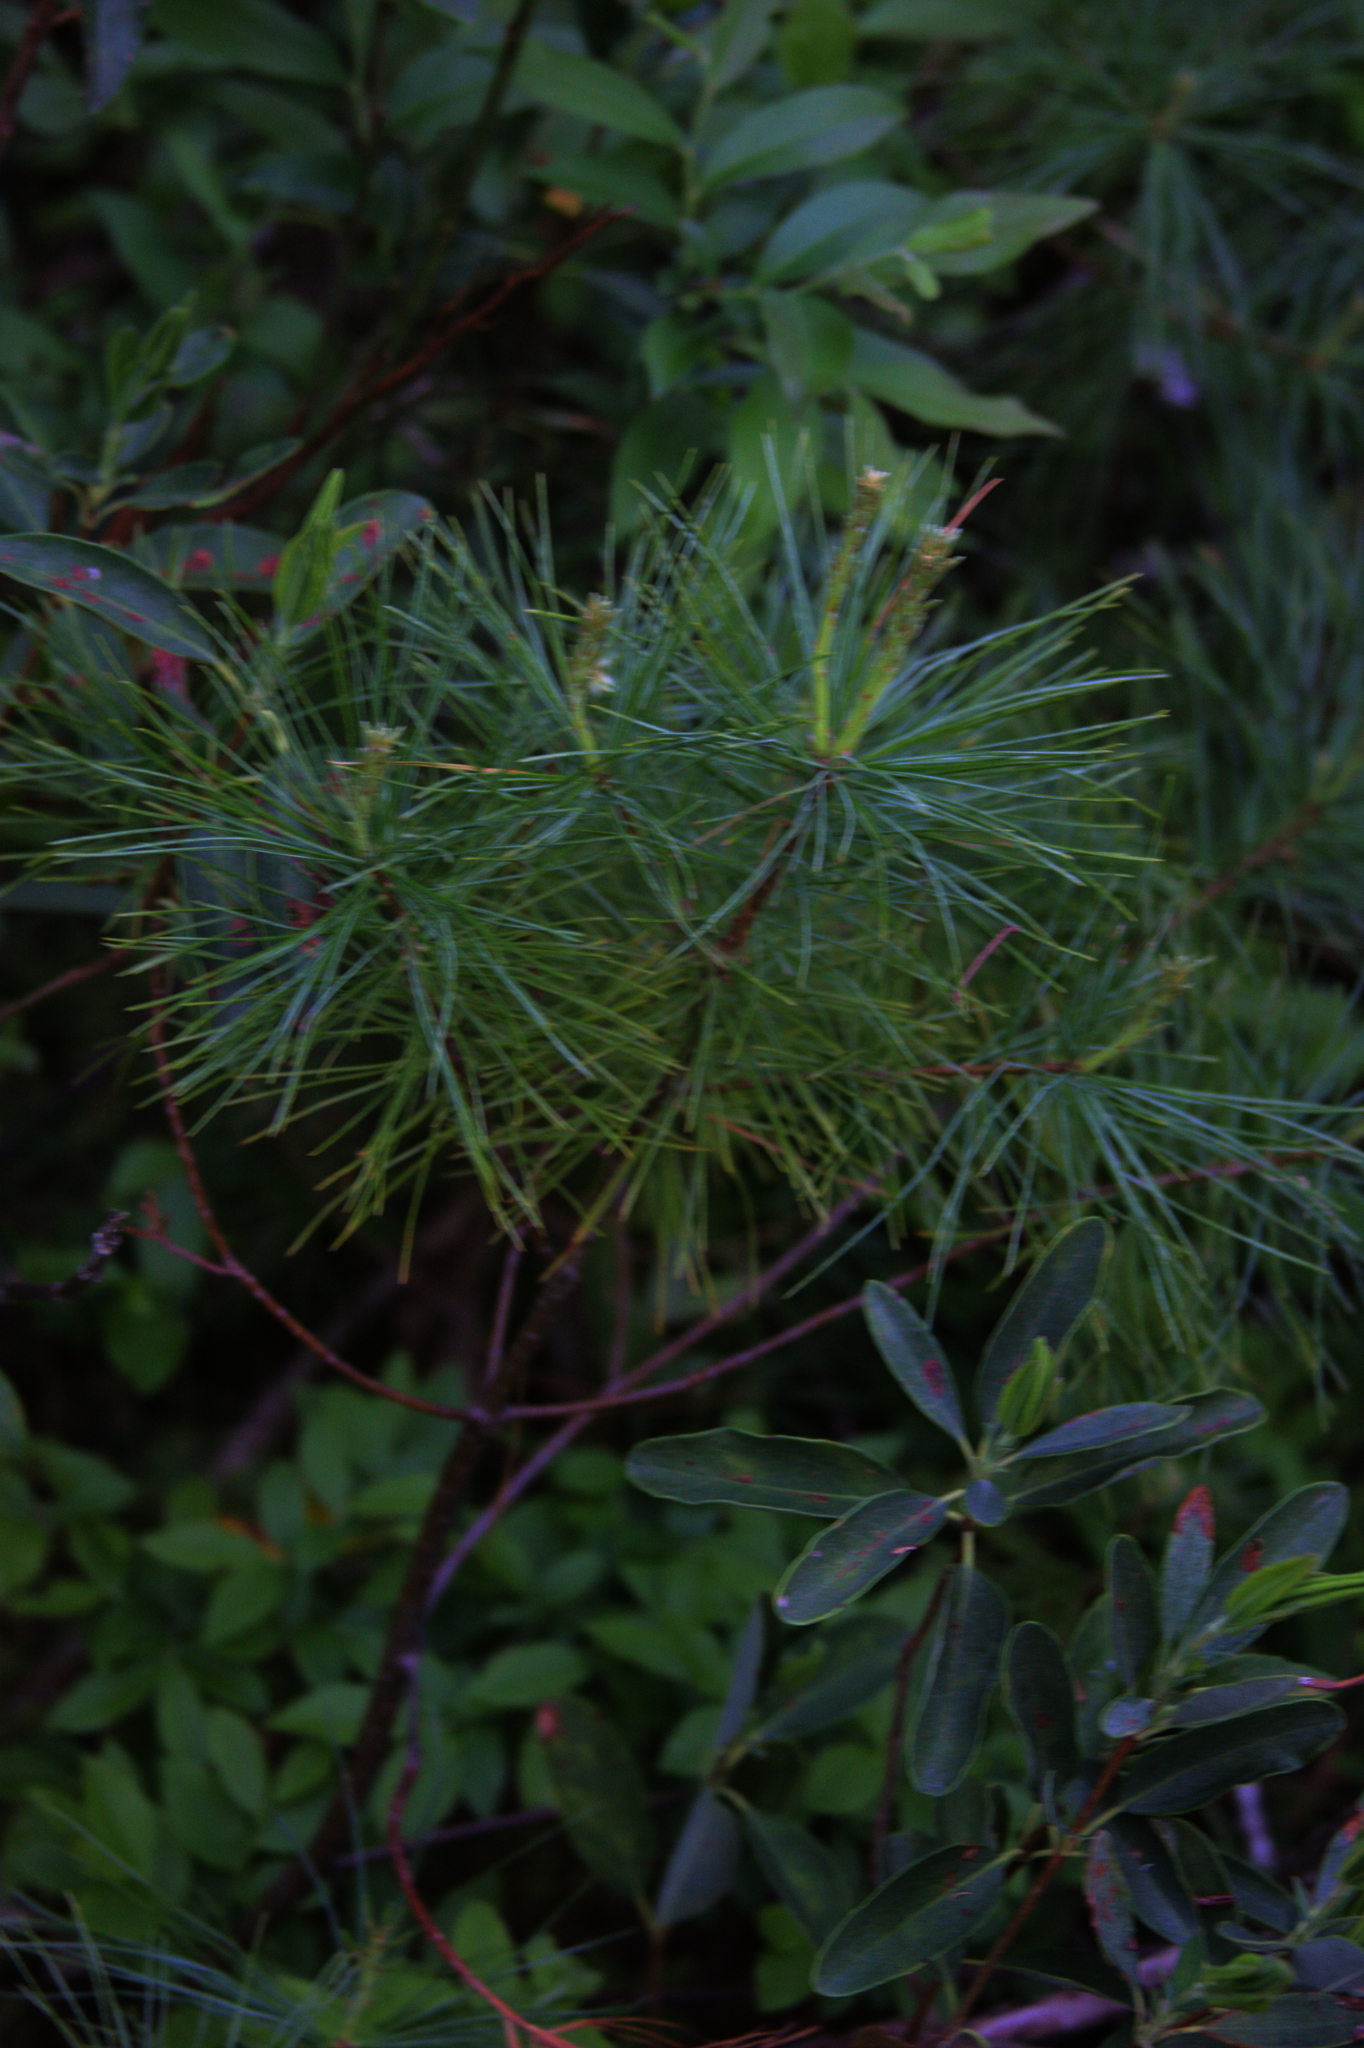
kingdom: Plantae
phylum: Tracheophyta
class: Pinopsida
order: Pinales
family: Pinaceae
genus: Pinus
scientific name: Pinus strobus
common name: Weymouth pine
